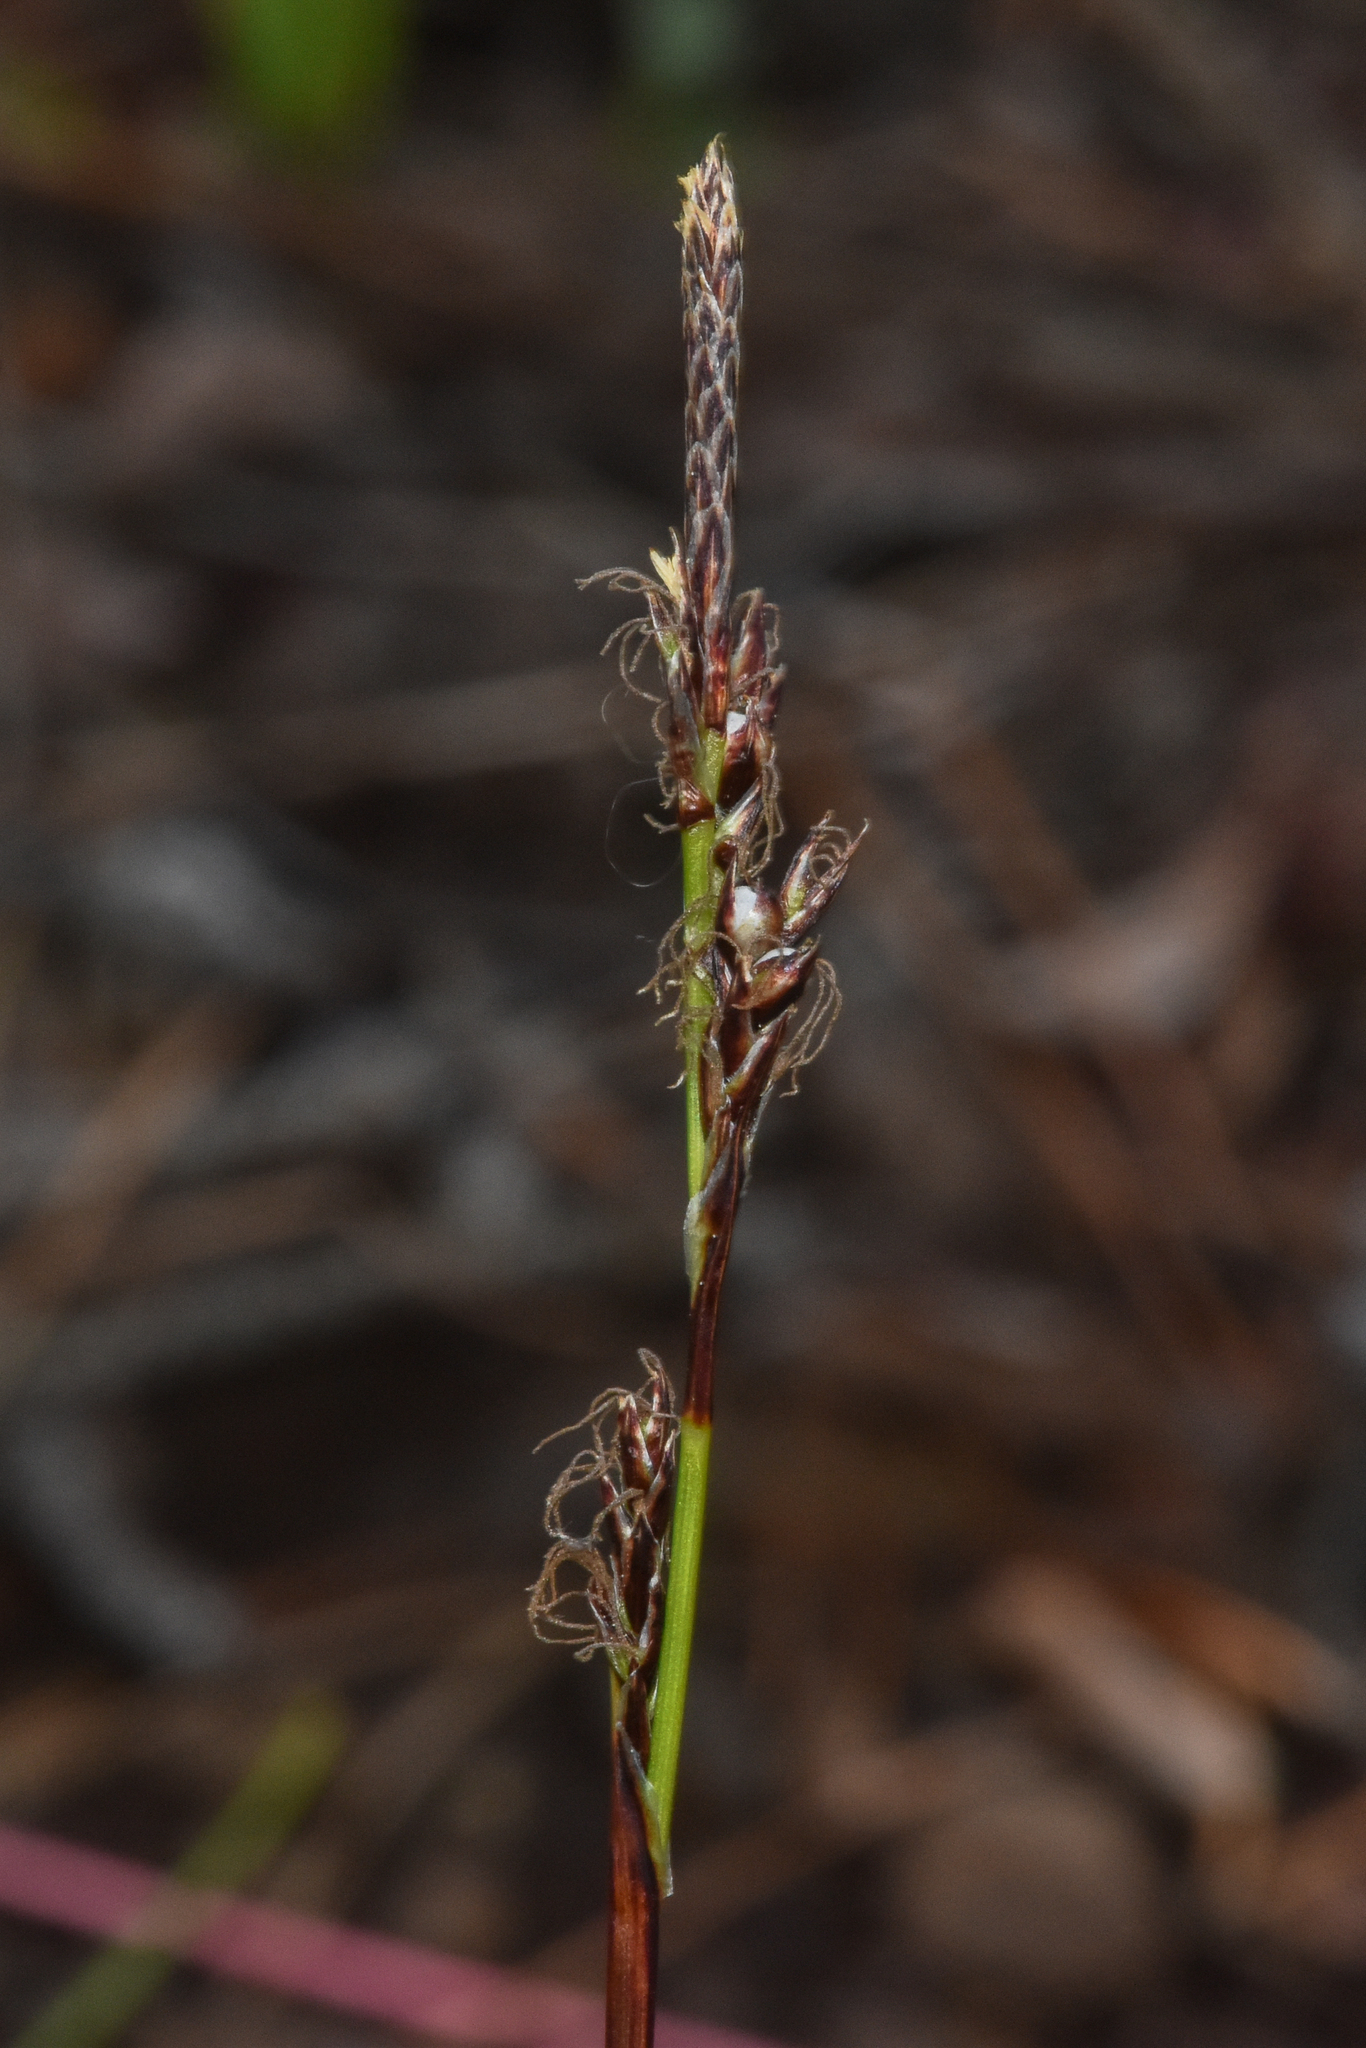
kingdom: Plantae
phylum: Tracheophyta
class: Liliopsida
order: Poales
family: Cyperaceae
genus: Carex
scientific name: Carex richardsonii
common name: Prairie hummock sedge
